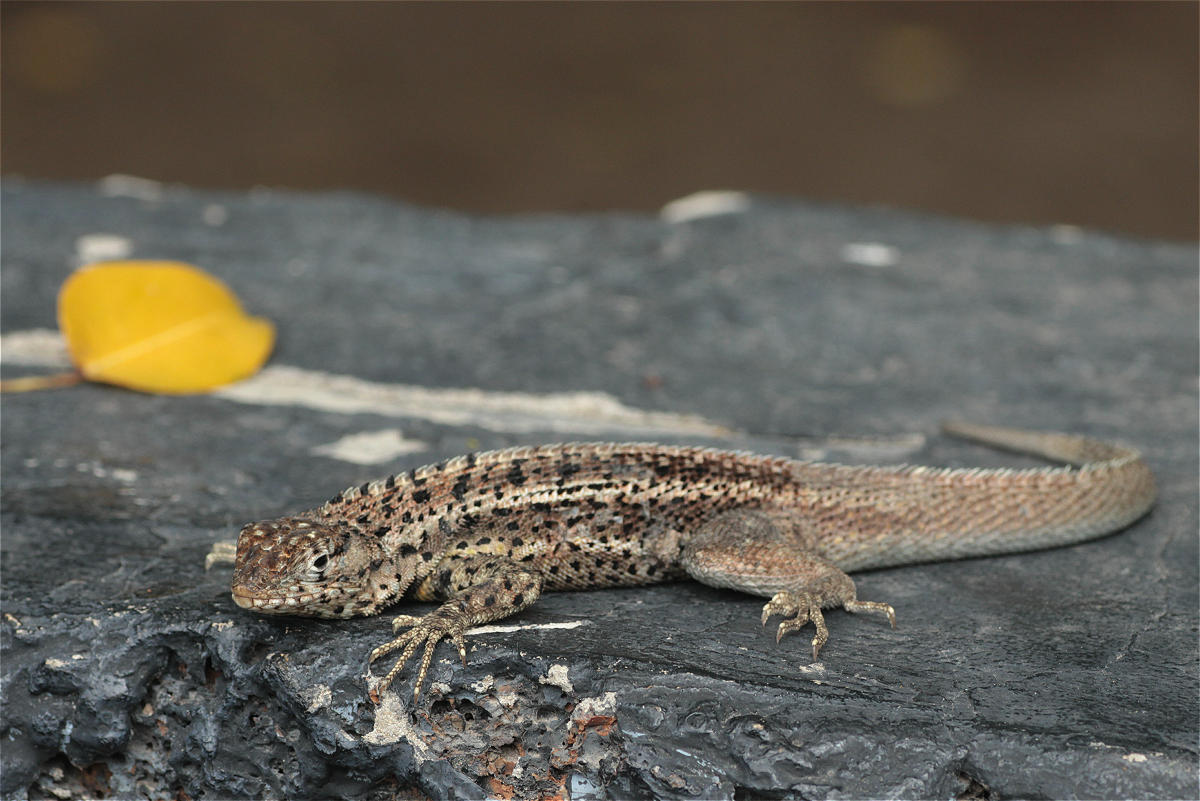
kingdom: Animalia
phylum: Chordata
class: Squamata
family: Tropiduridae
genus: Microlophus
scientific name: Microlophus albemarlensis
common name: Galapagos lava lizard
